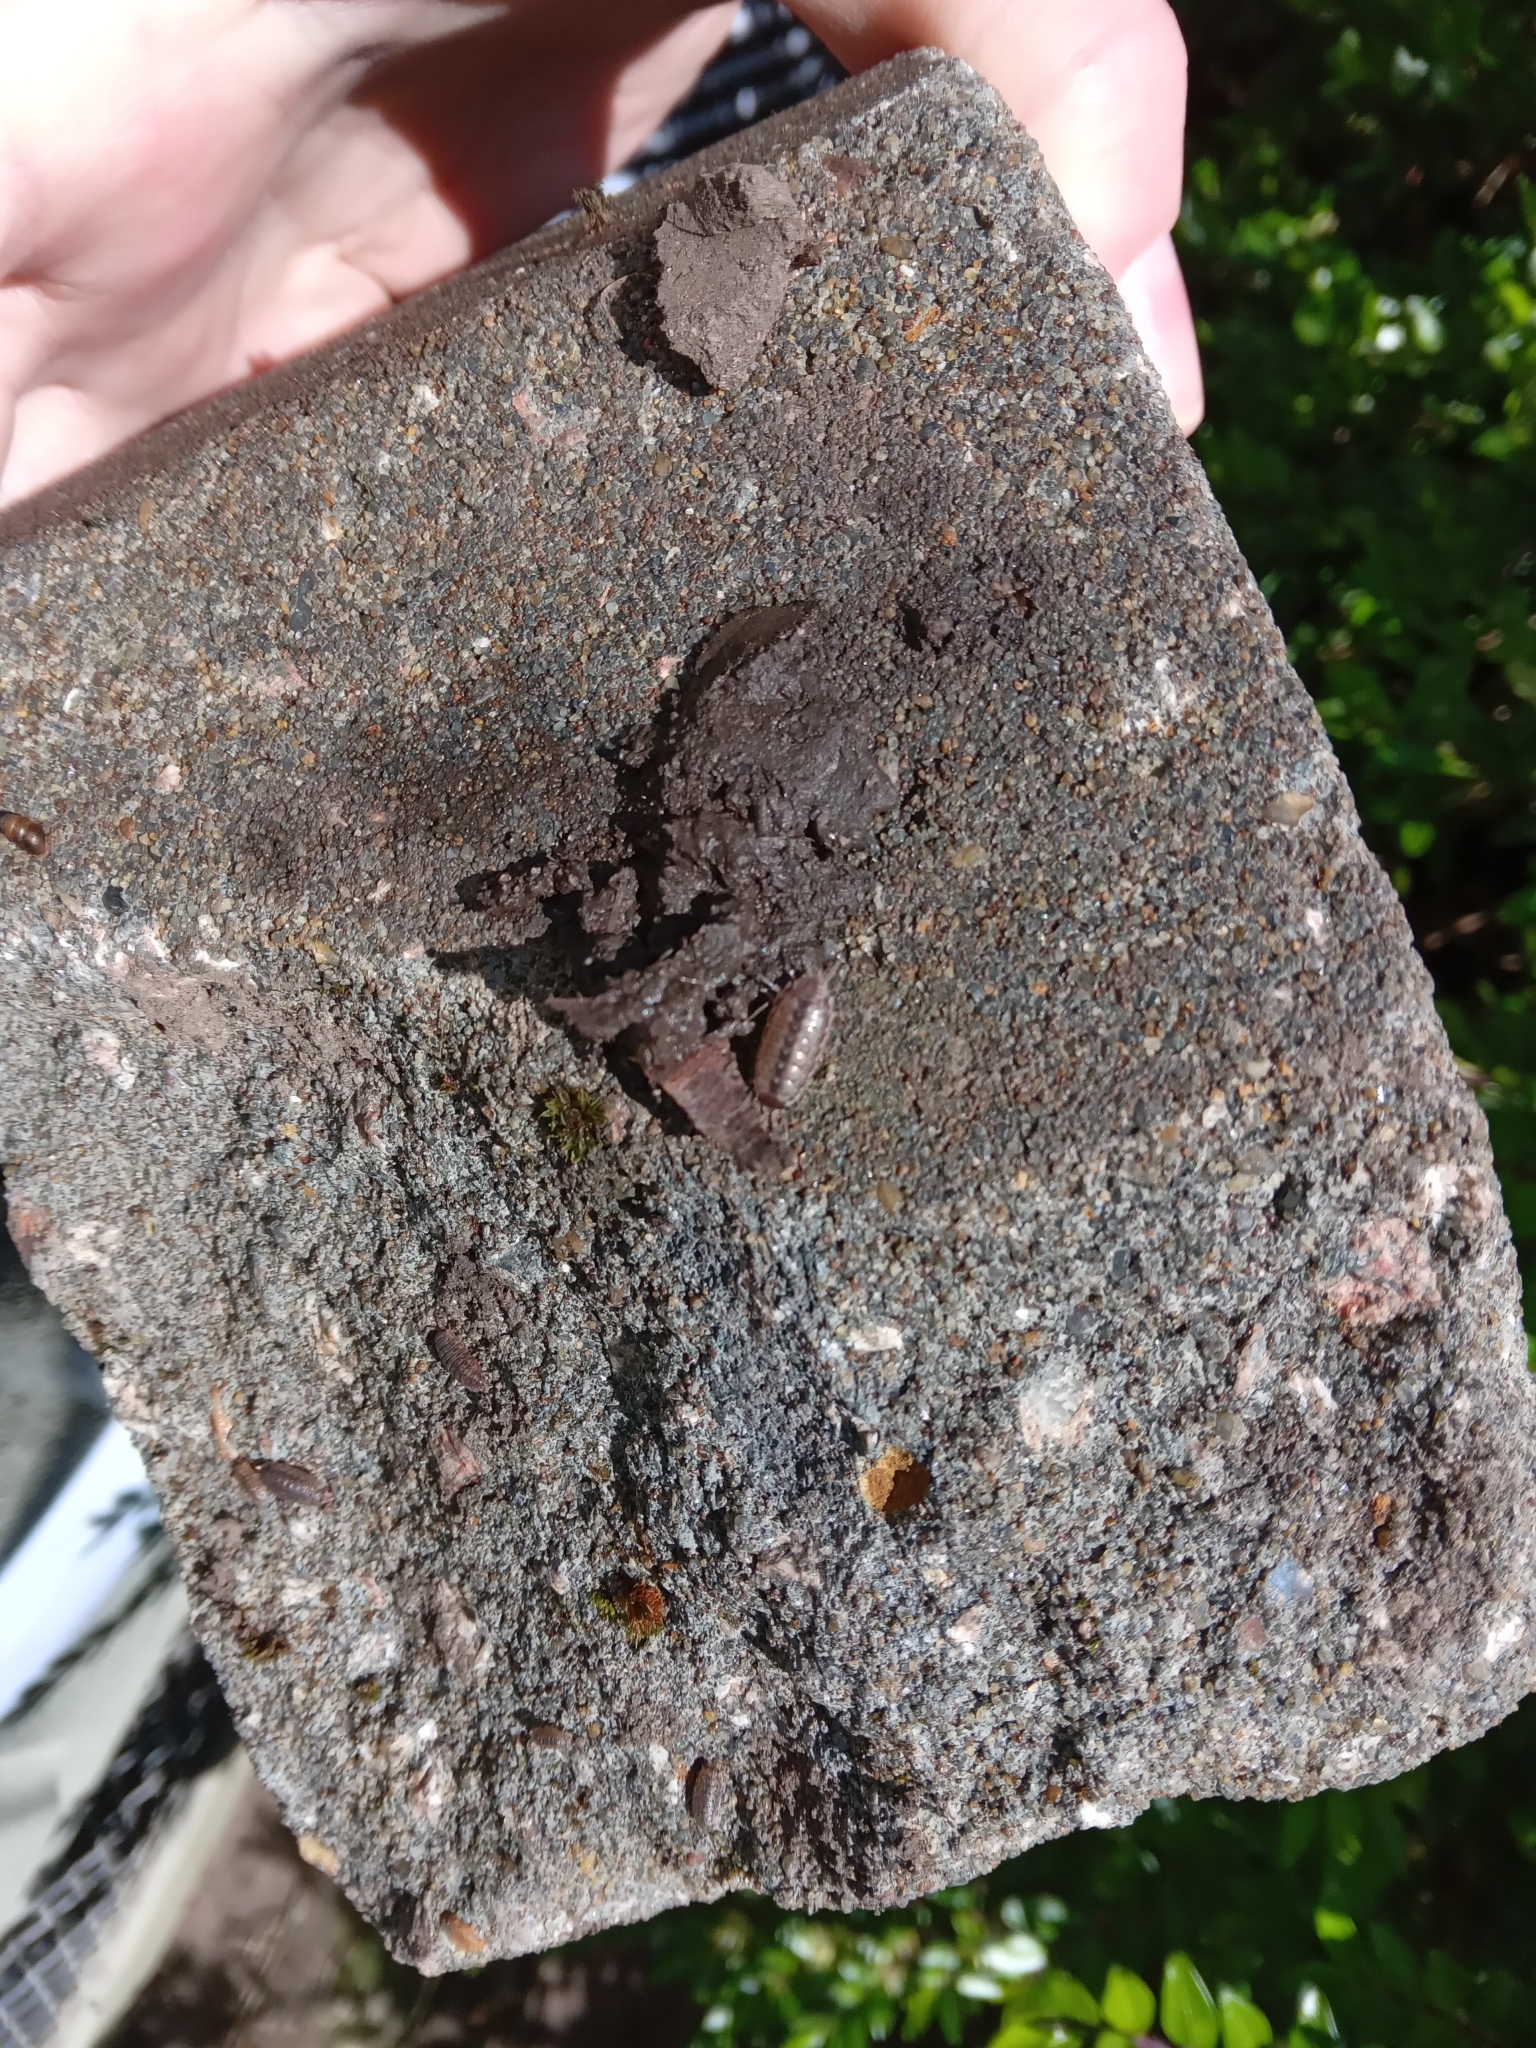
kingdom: Animalia
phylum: Arthropoda
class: Malacostraca
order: Isopoda
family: Philosciidae
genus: Philoscia
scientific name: Philoscia muscorum
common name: Common striped woodlouse
